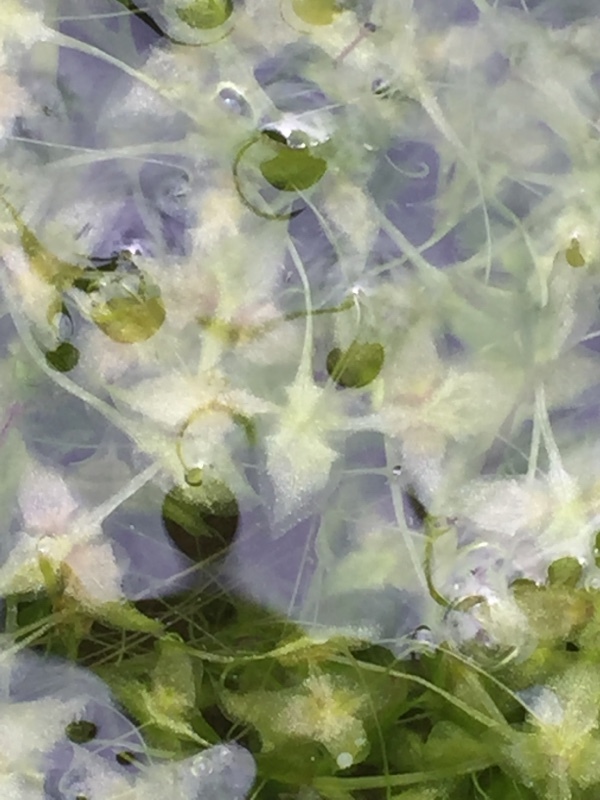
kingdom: Plantae
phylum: Tracheophyta
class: Liliopsida
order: Alismatales
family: Araceae
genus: Lemna
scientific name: Lemna trisulca
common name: Ivy-leaved duckweed
